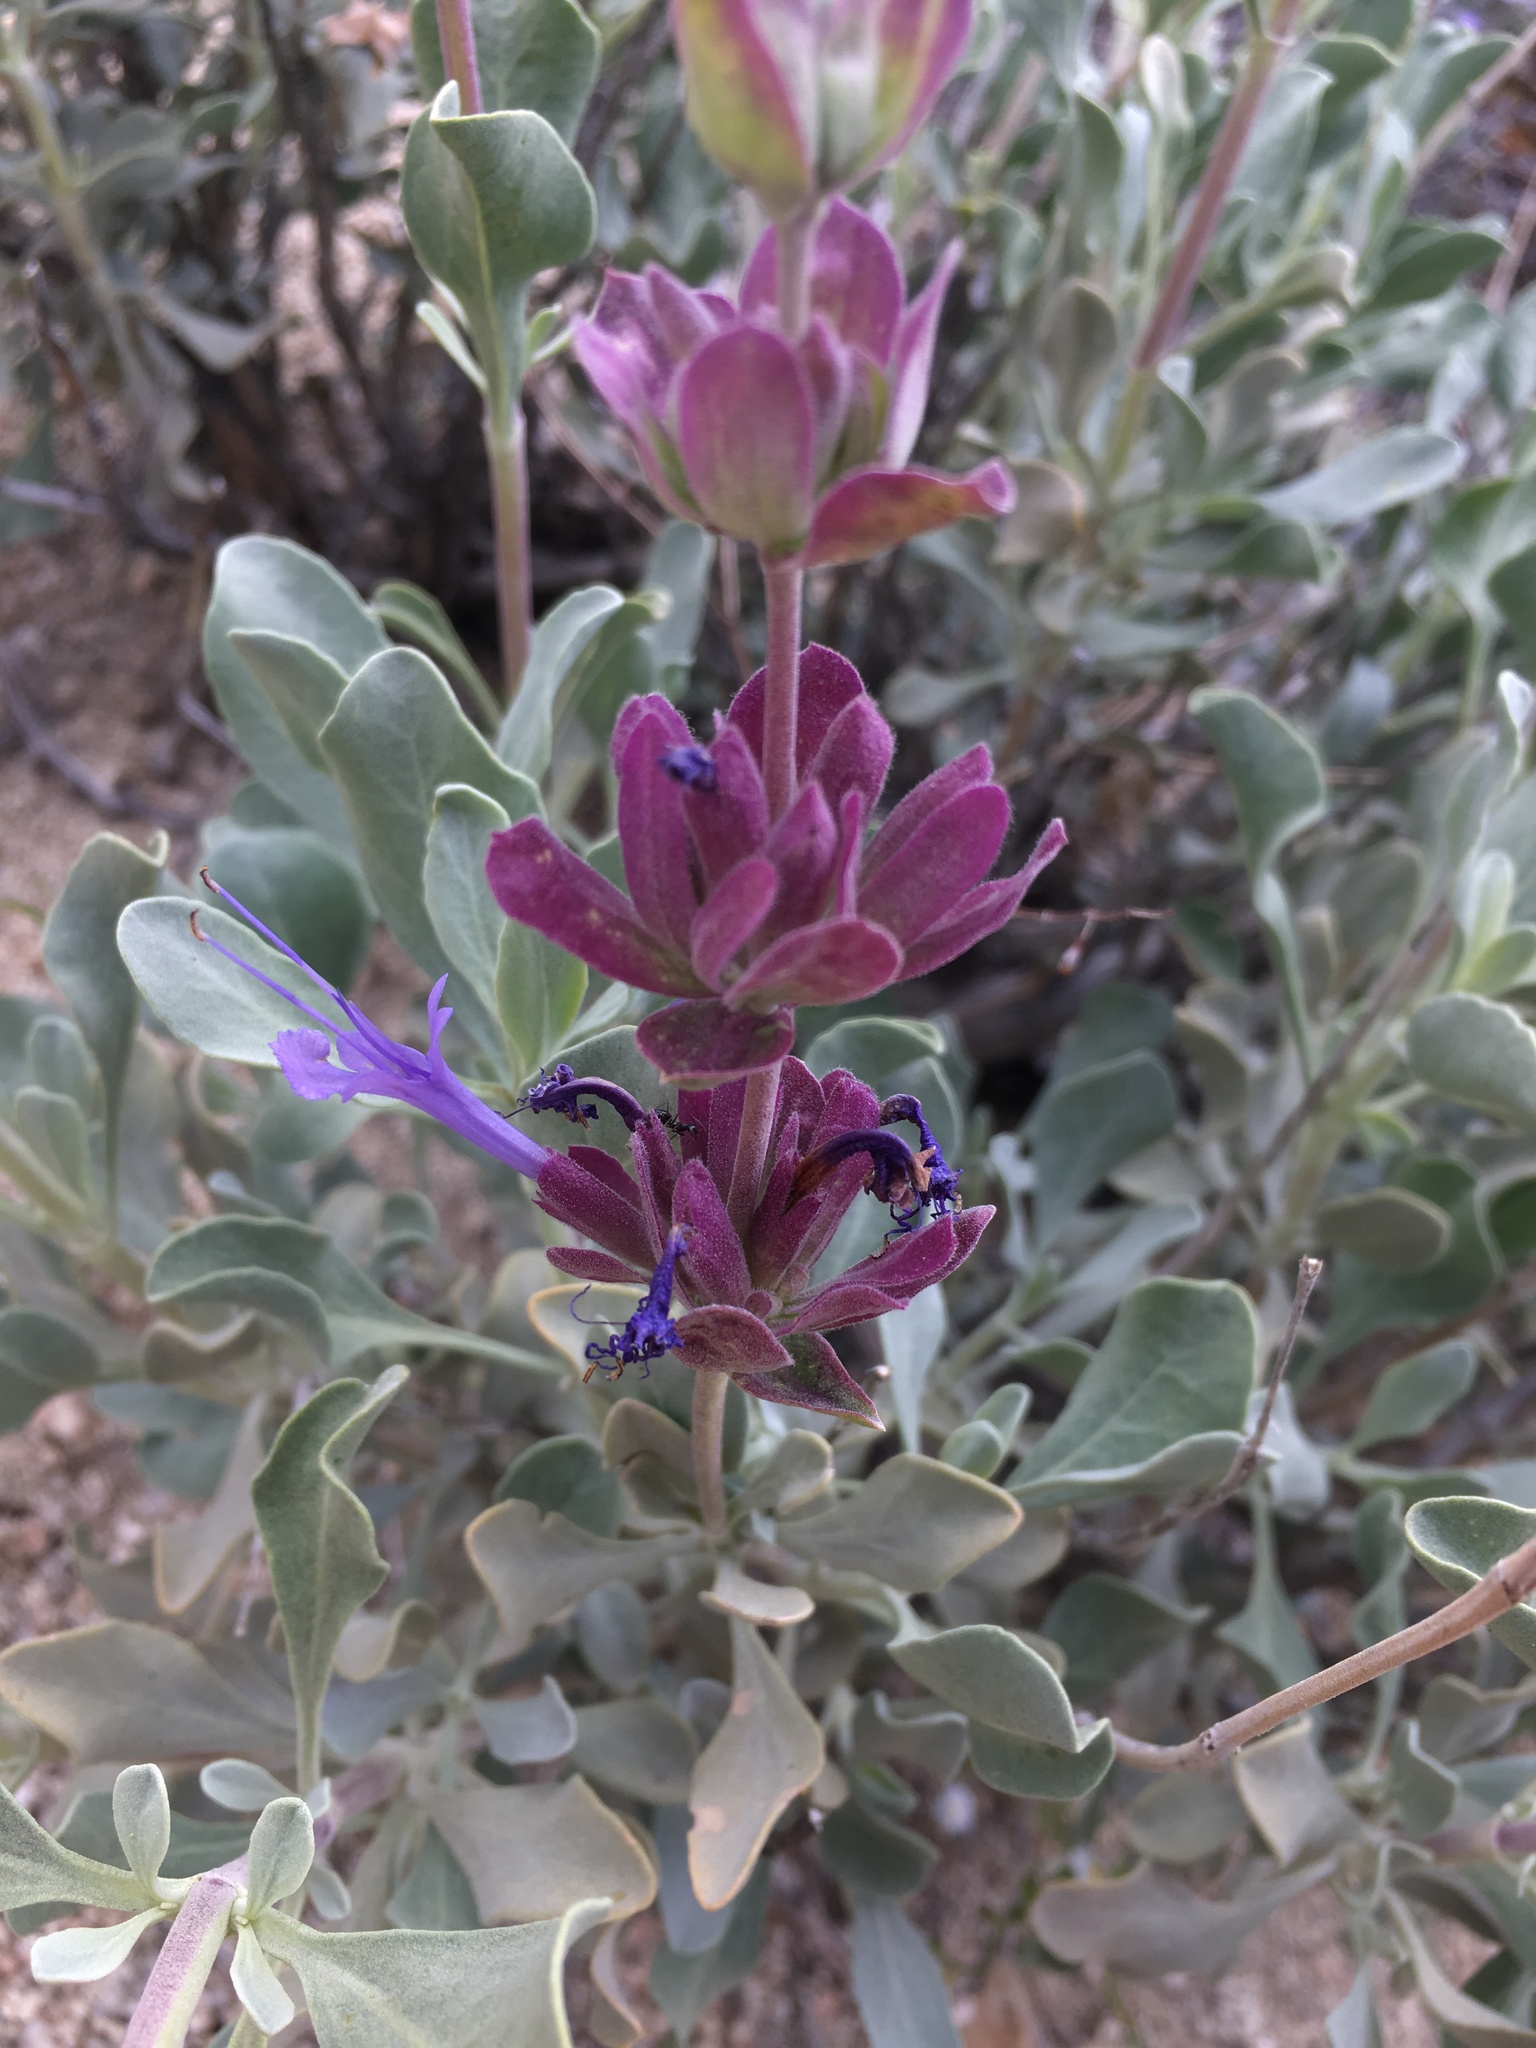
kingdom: Plantae
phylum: Tracheophyta
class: Magnoliopsida
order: Lamiales
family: Lamiaceae
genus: Salvia
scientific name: Salvia pachyphylla
